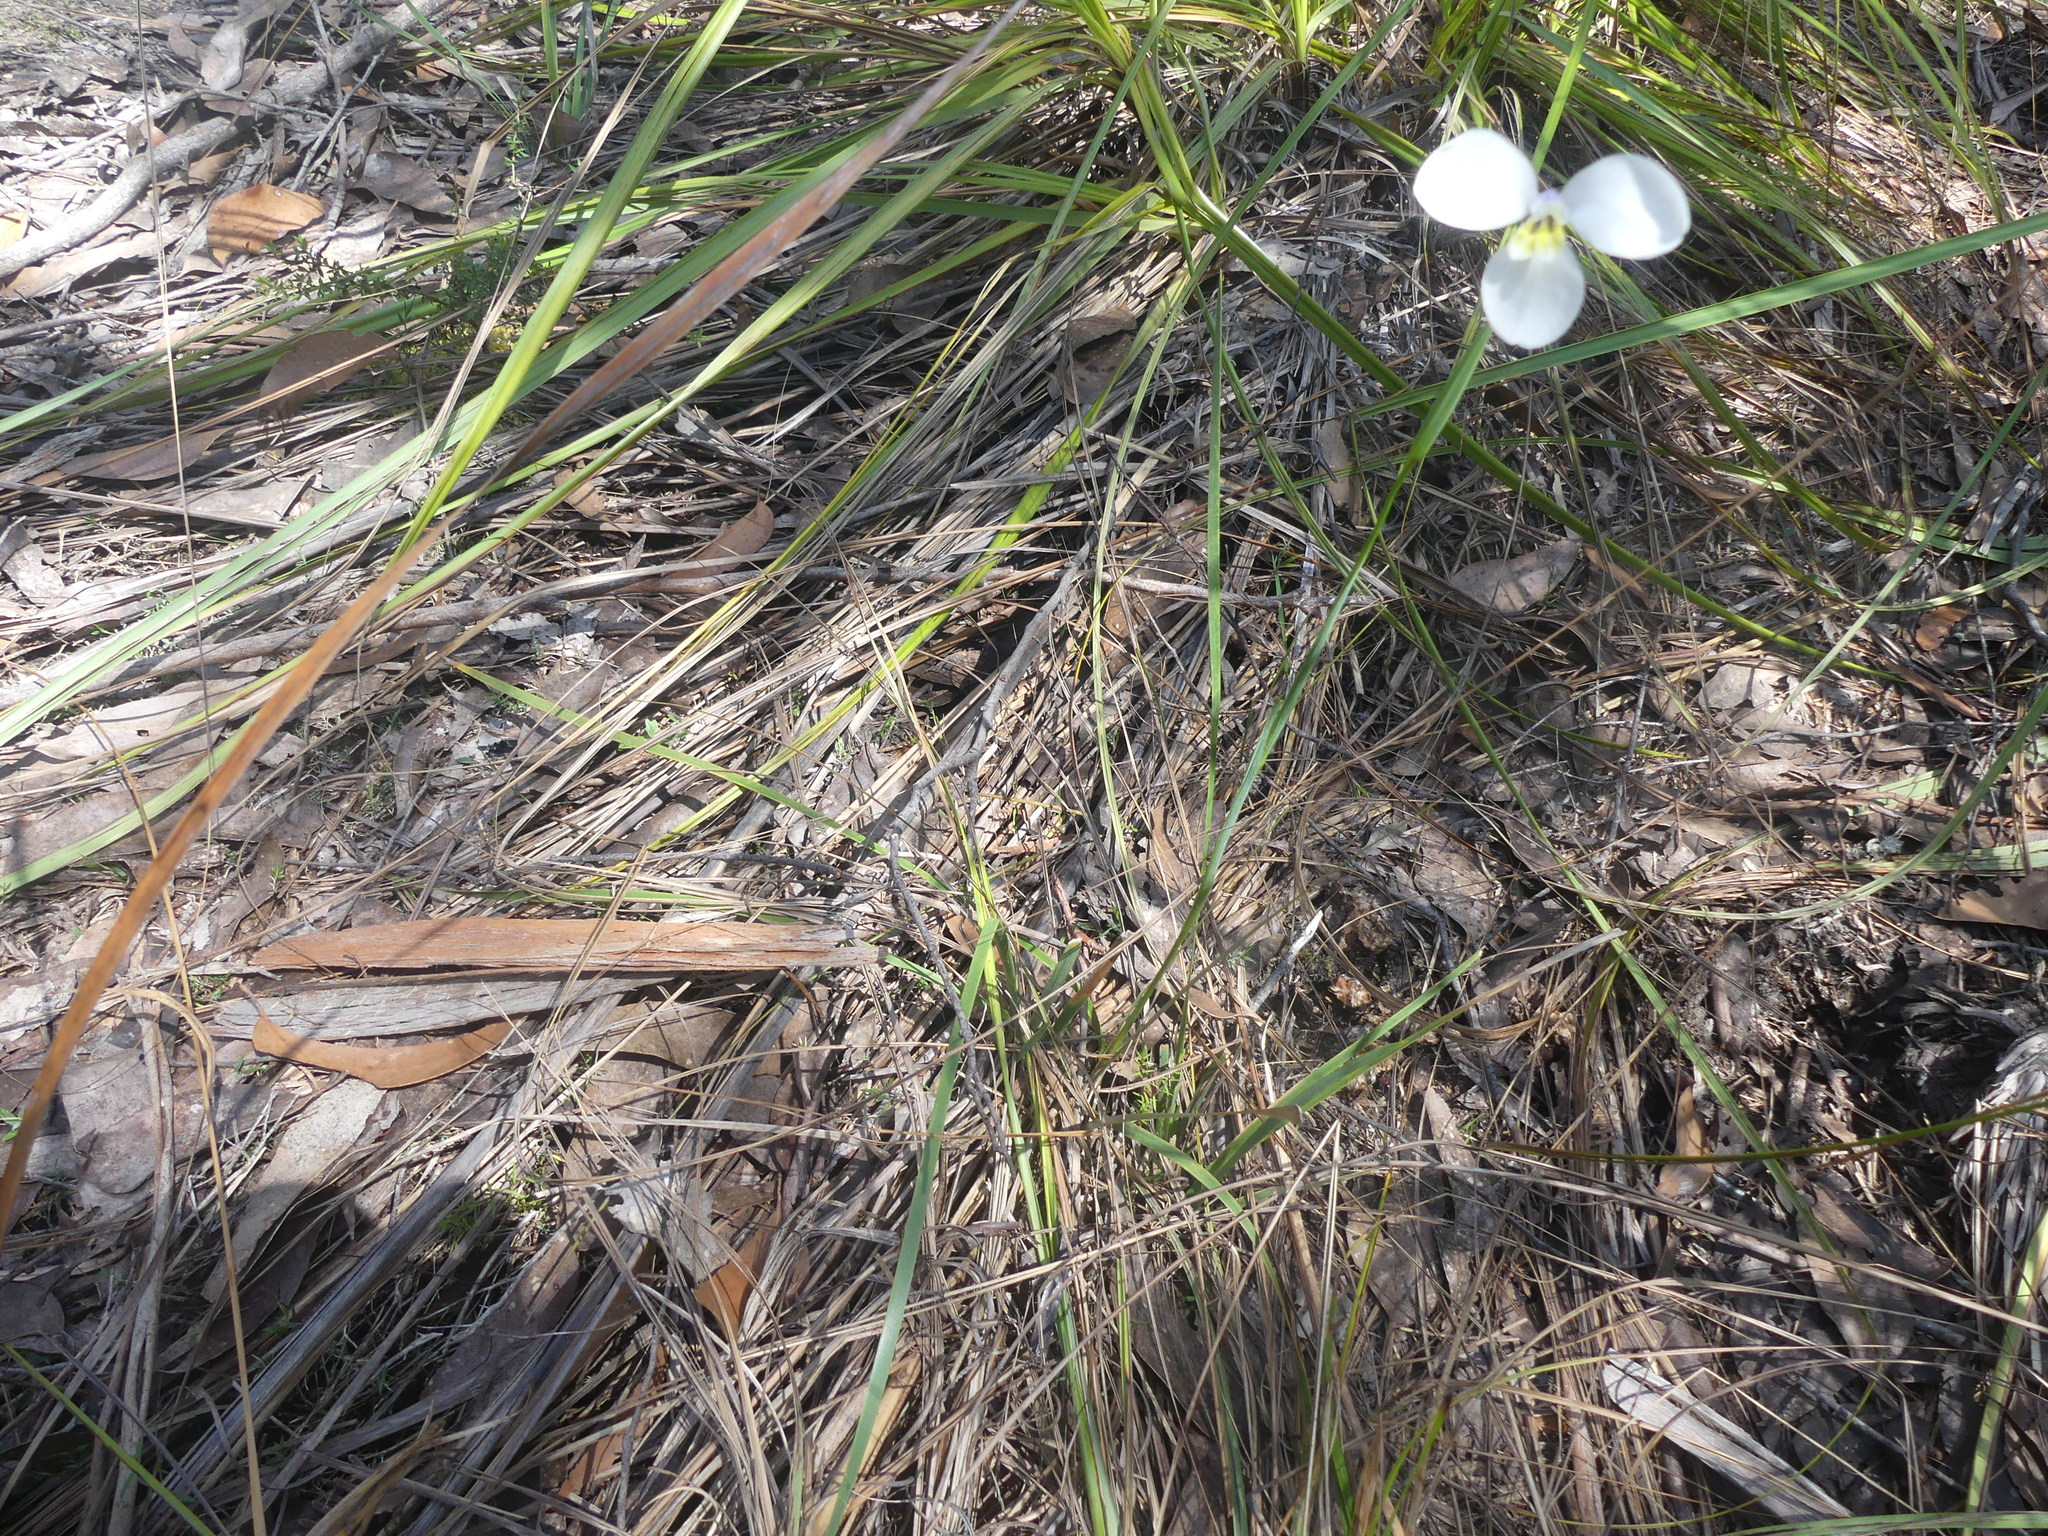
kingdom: Plantae
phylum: Tracheophyta
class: Liliopsida
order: Asparagales
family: Iridaceae
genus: Diplarrena
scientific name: Diplarrena moraea
